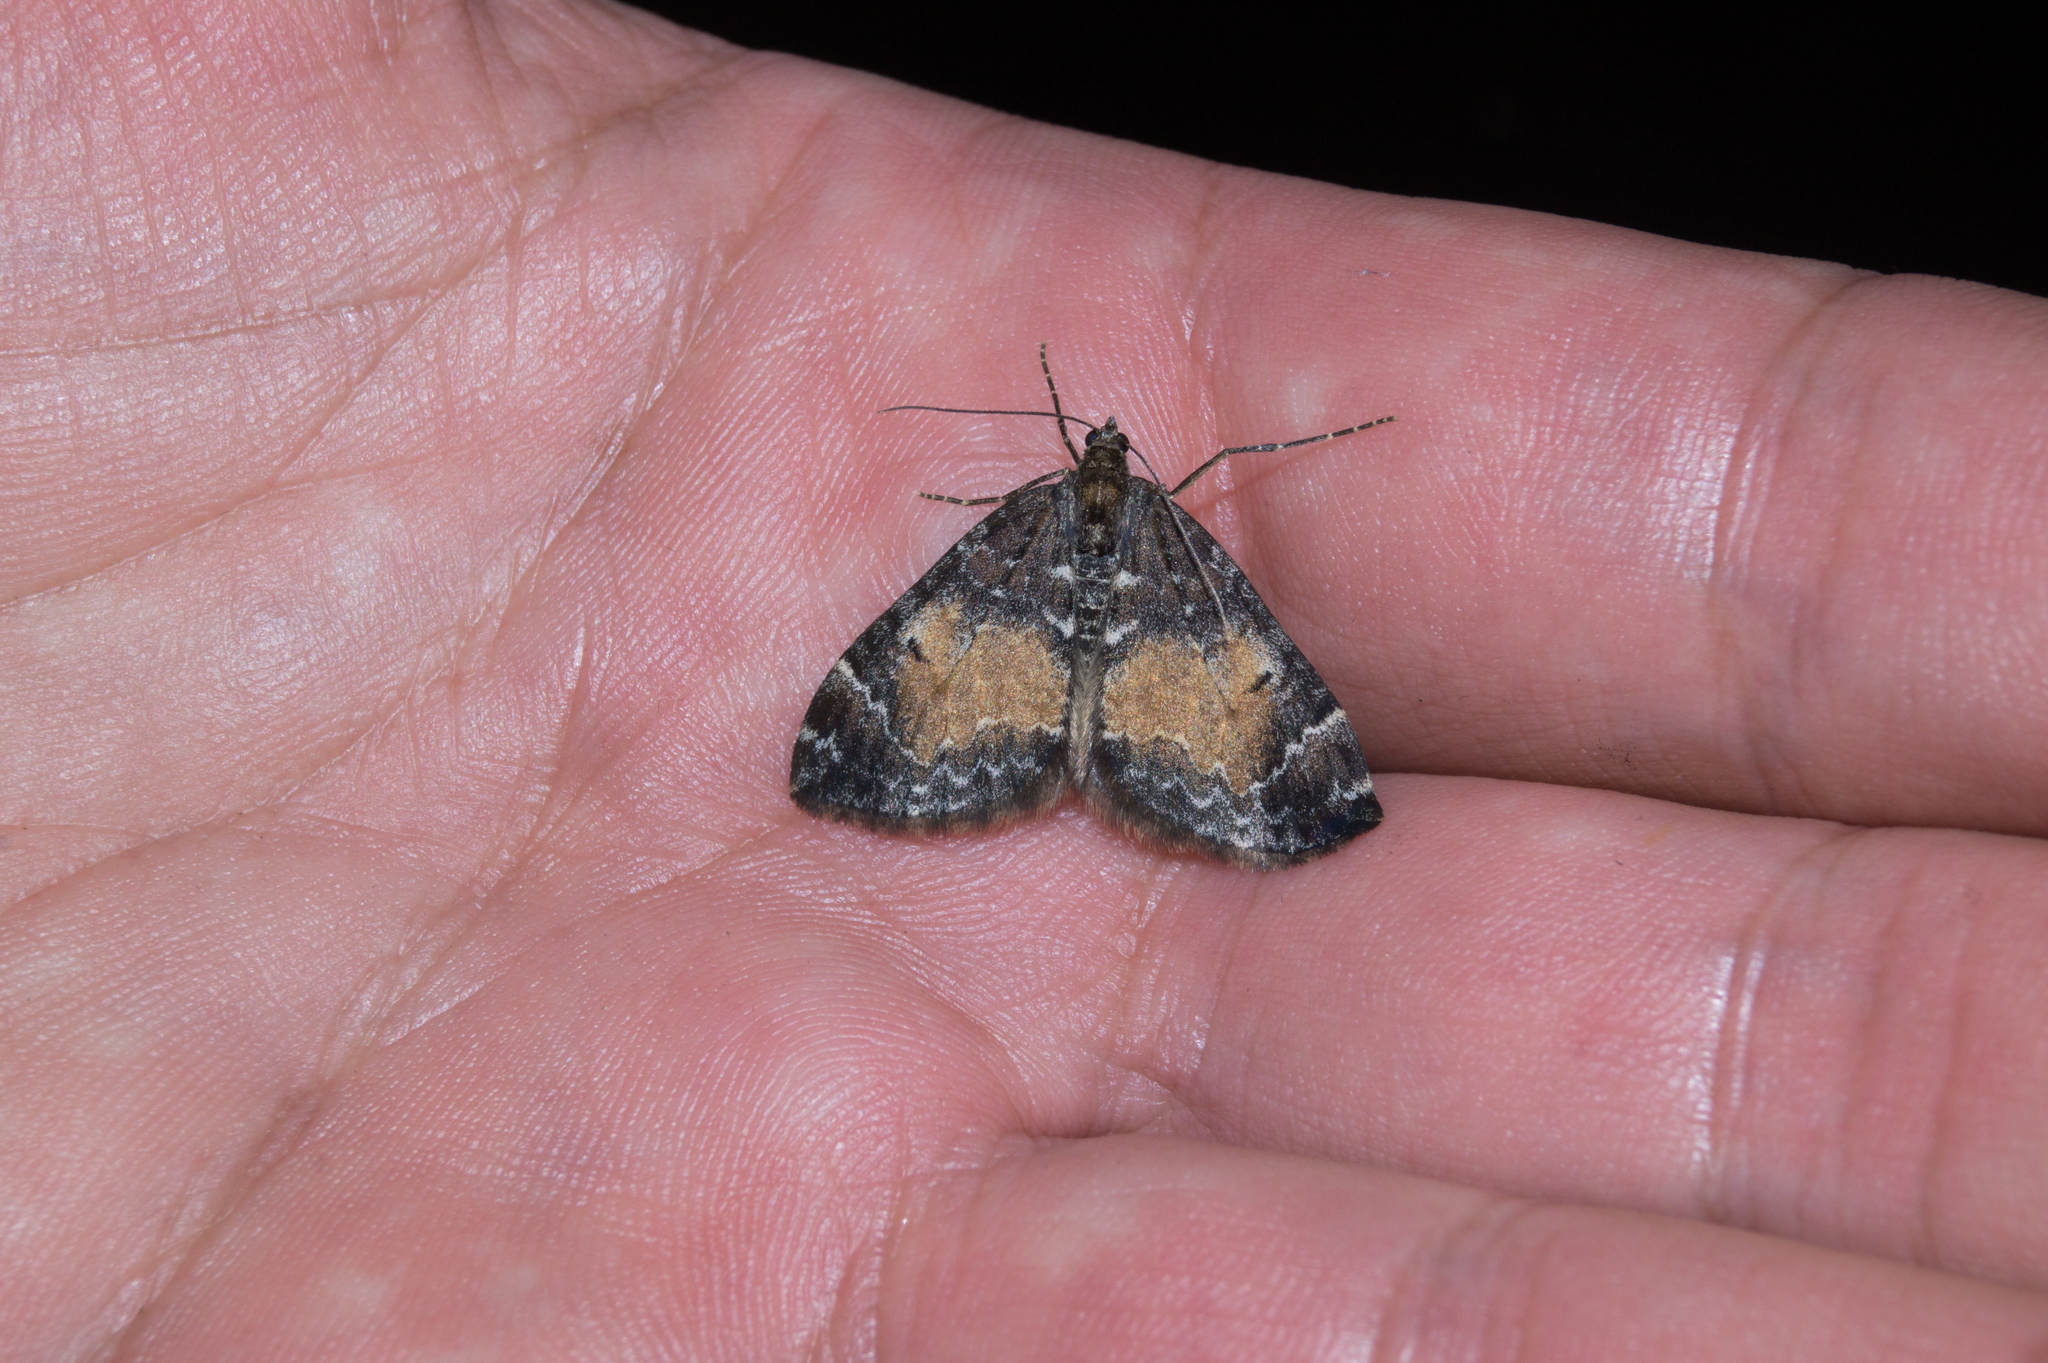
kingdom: Animalia
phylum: Arthropoda
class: Insecta
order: Lepidoptera
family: Geometridae
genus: Dysstroma
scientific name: Dysstroma truncata
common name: Common marbled carpet
